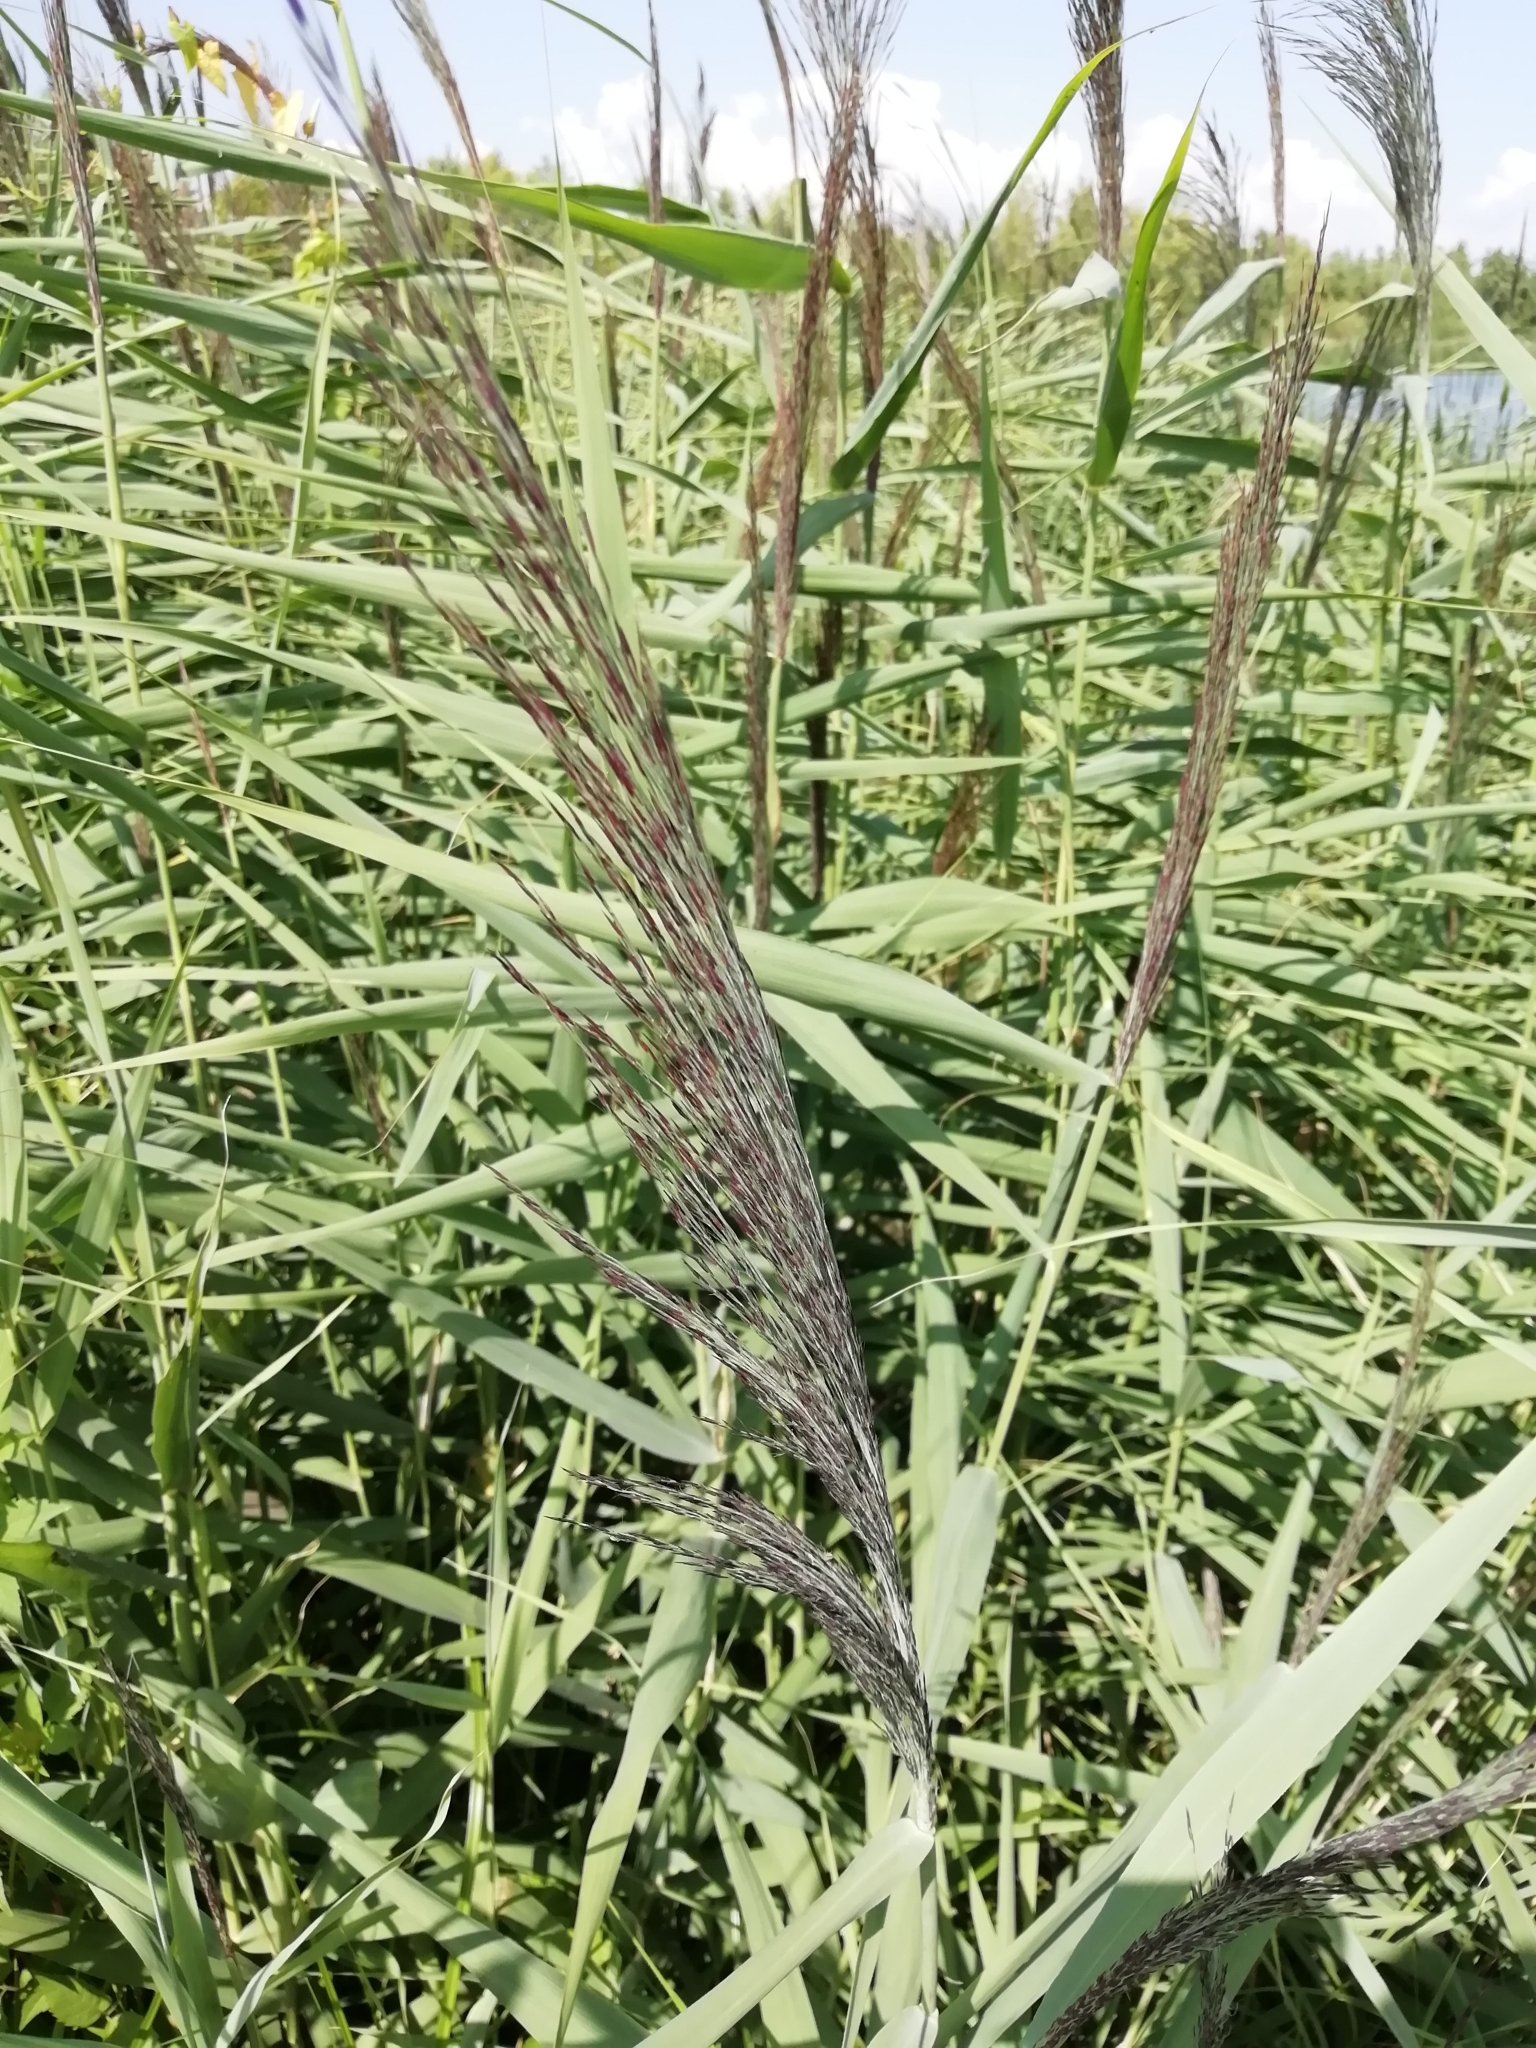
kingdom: Plantae
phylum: Tracheophyta
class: Liliopsida
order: Poales
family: Poaceae
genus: Phragmites
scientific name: Phragmites australis
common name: Common reed
